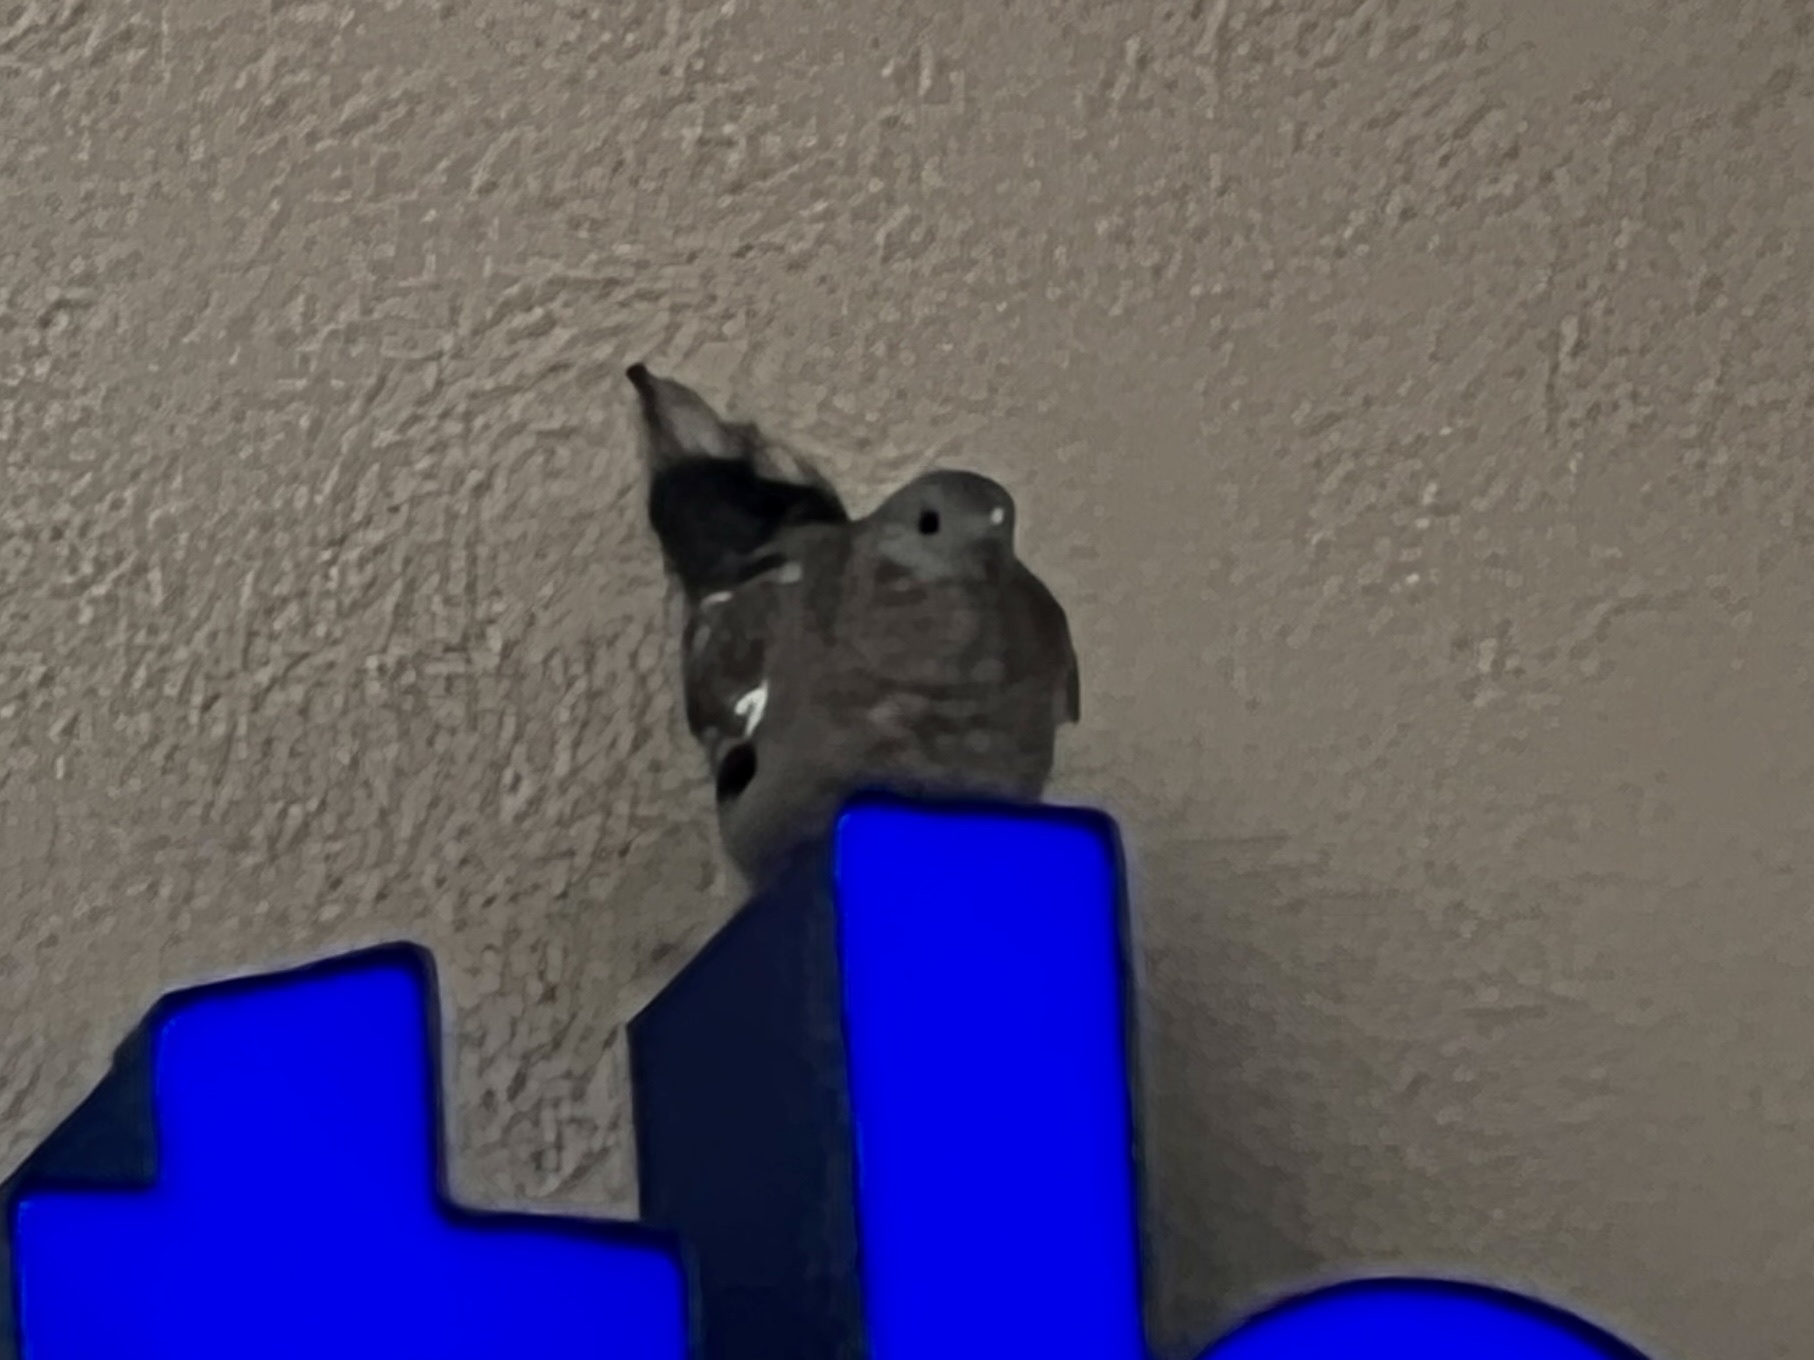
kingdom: Animalia
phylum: Chordata
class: Aves
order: Columbiformes
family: Columbidae
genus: Zenaida
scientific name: Zenaida asiatica
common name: White-winged dove
